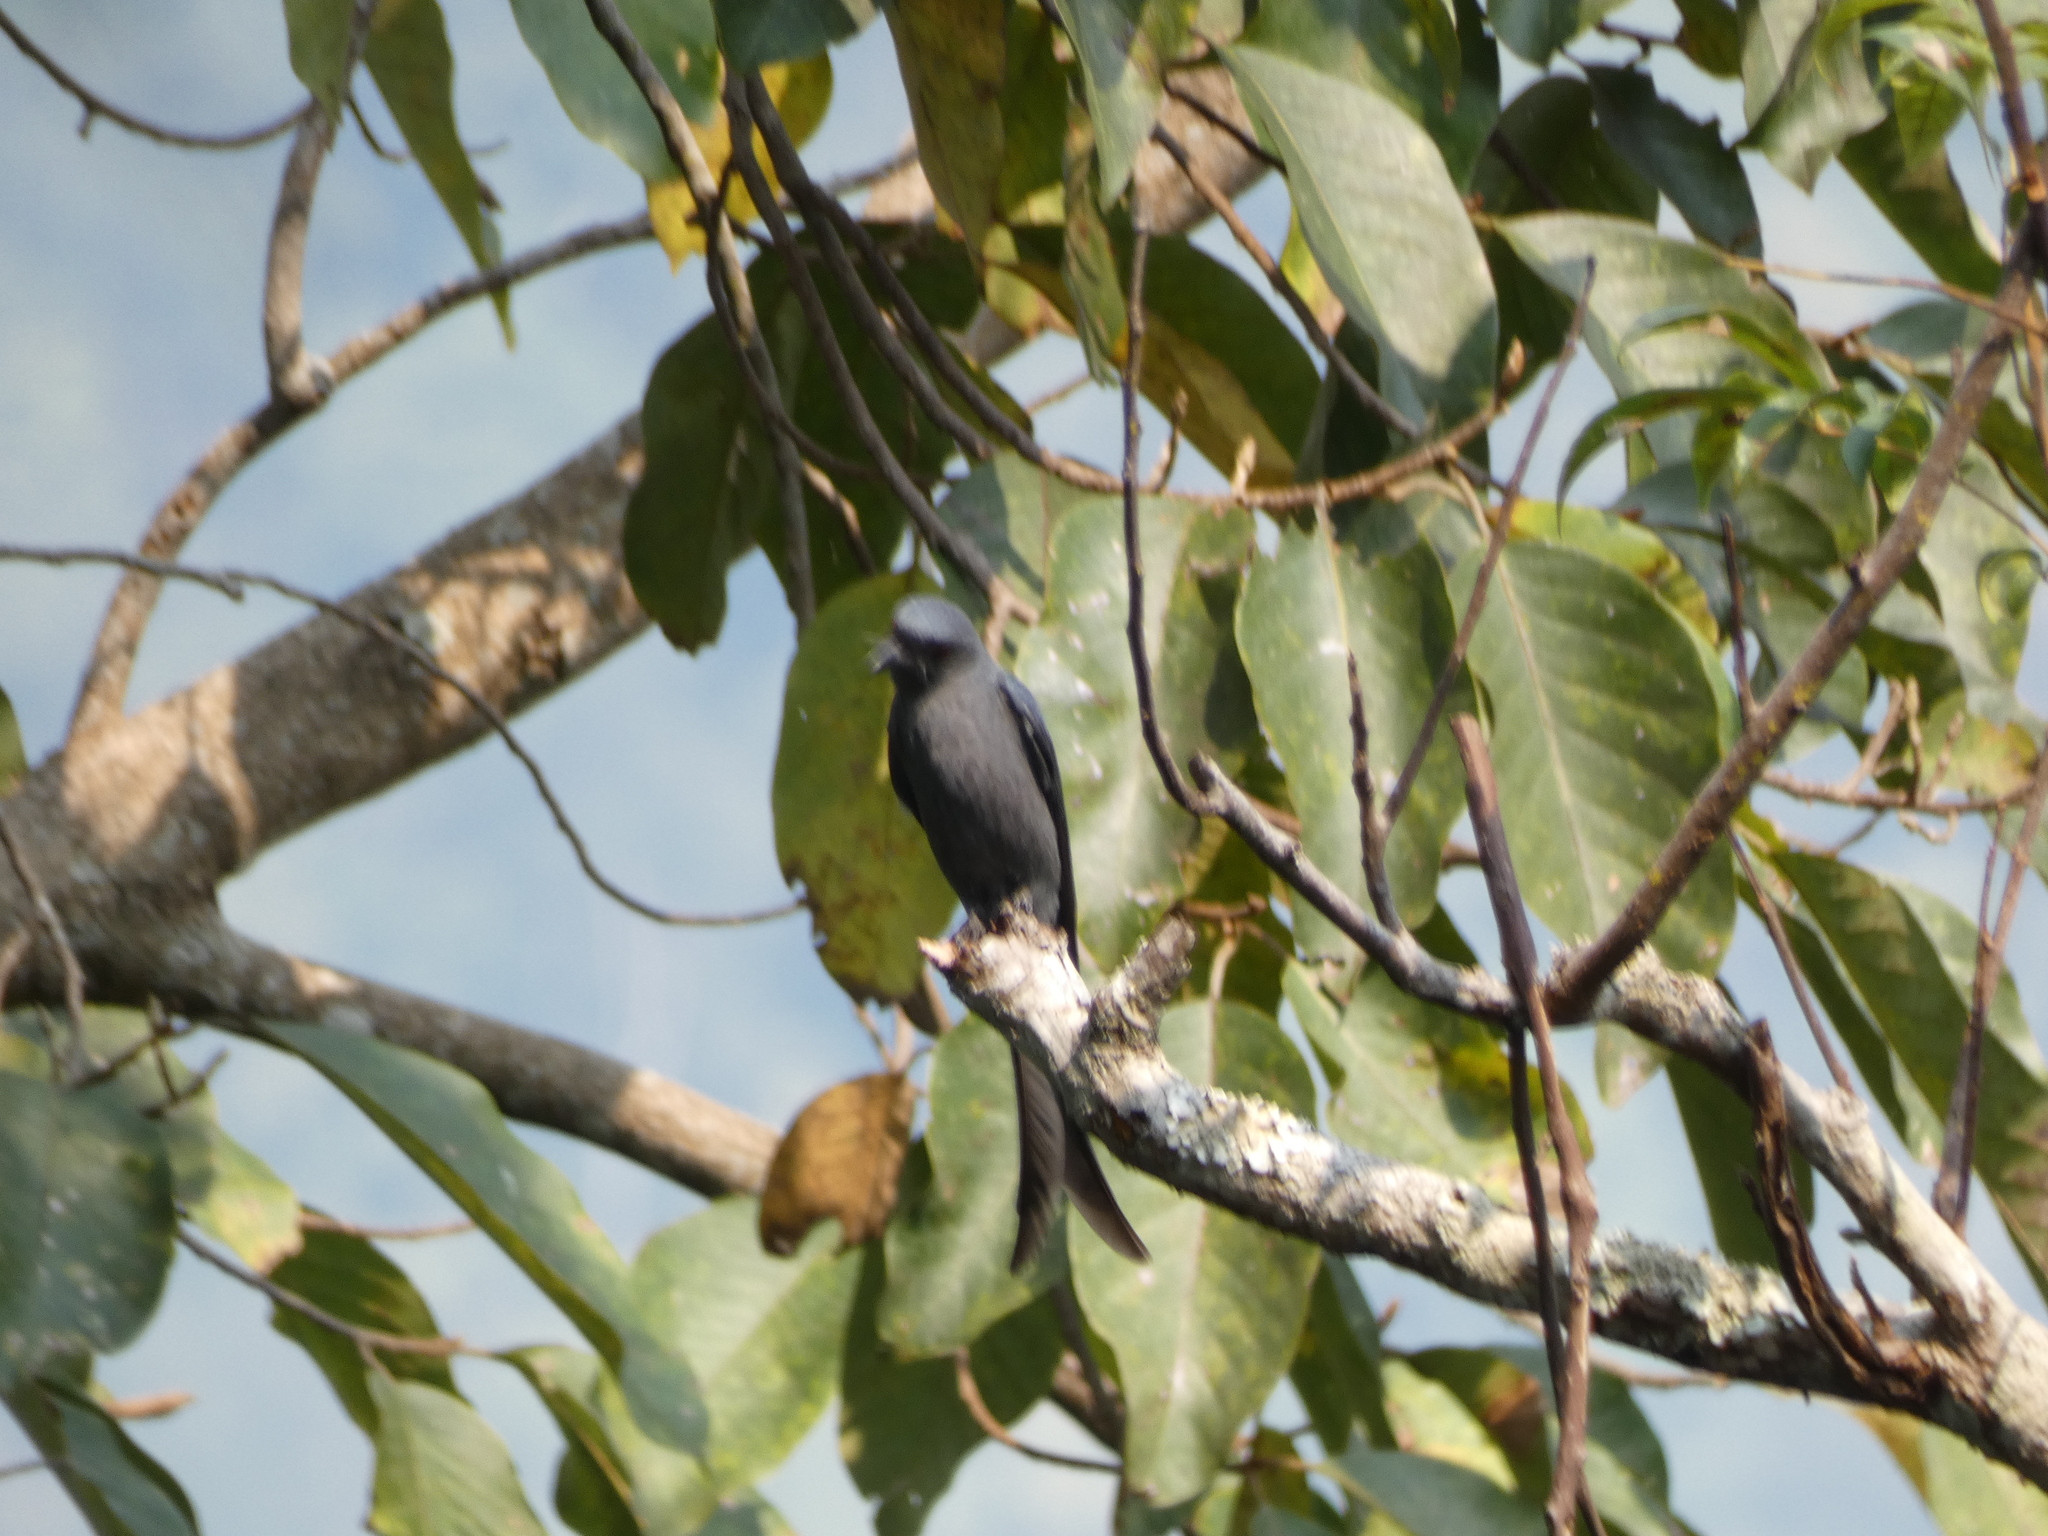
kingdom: Animalia
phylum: Chordata
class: Aves
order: Passeriformes
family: Dicruridae
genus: Dicrurus
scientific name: Dicrurus leucophaeus
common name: Ashy drongo
